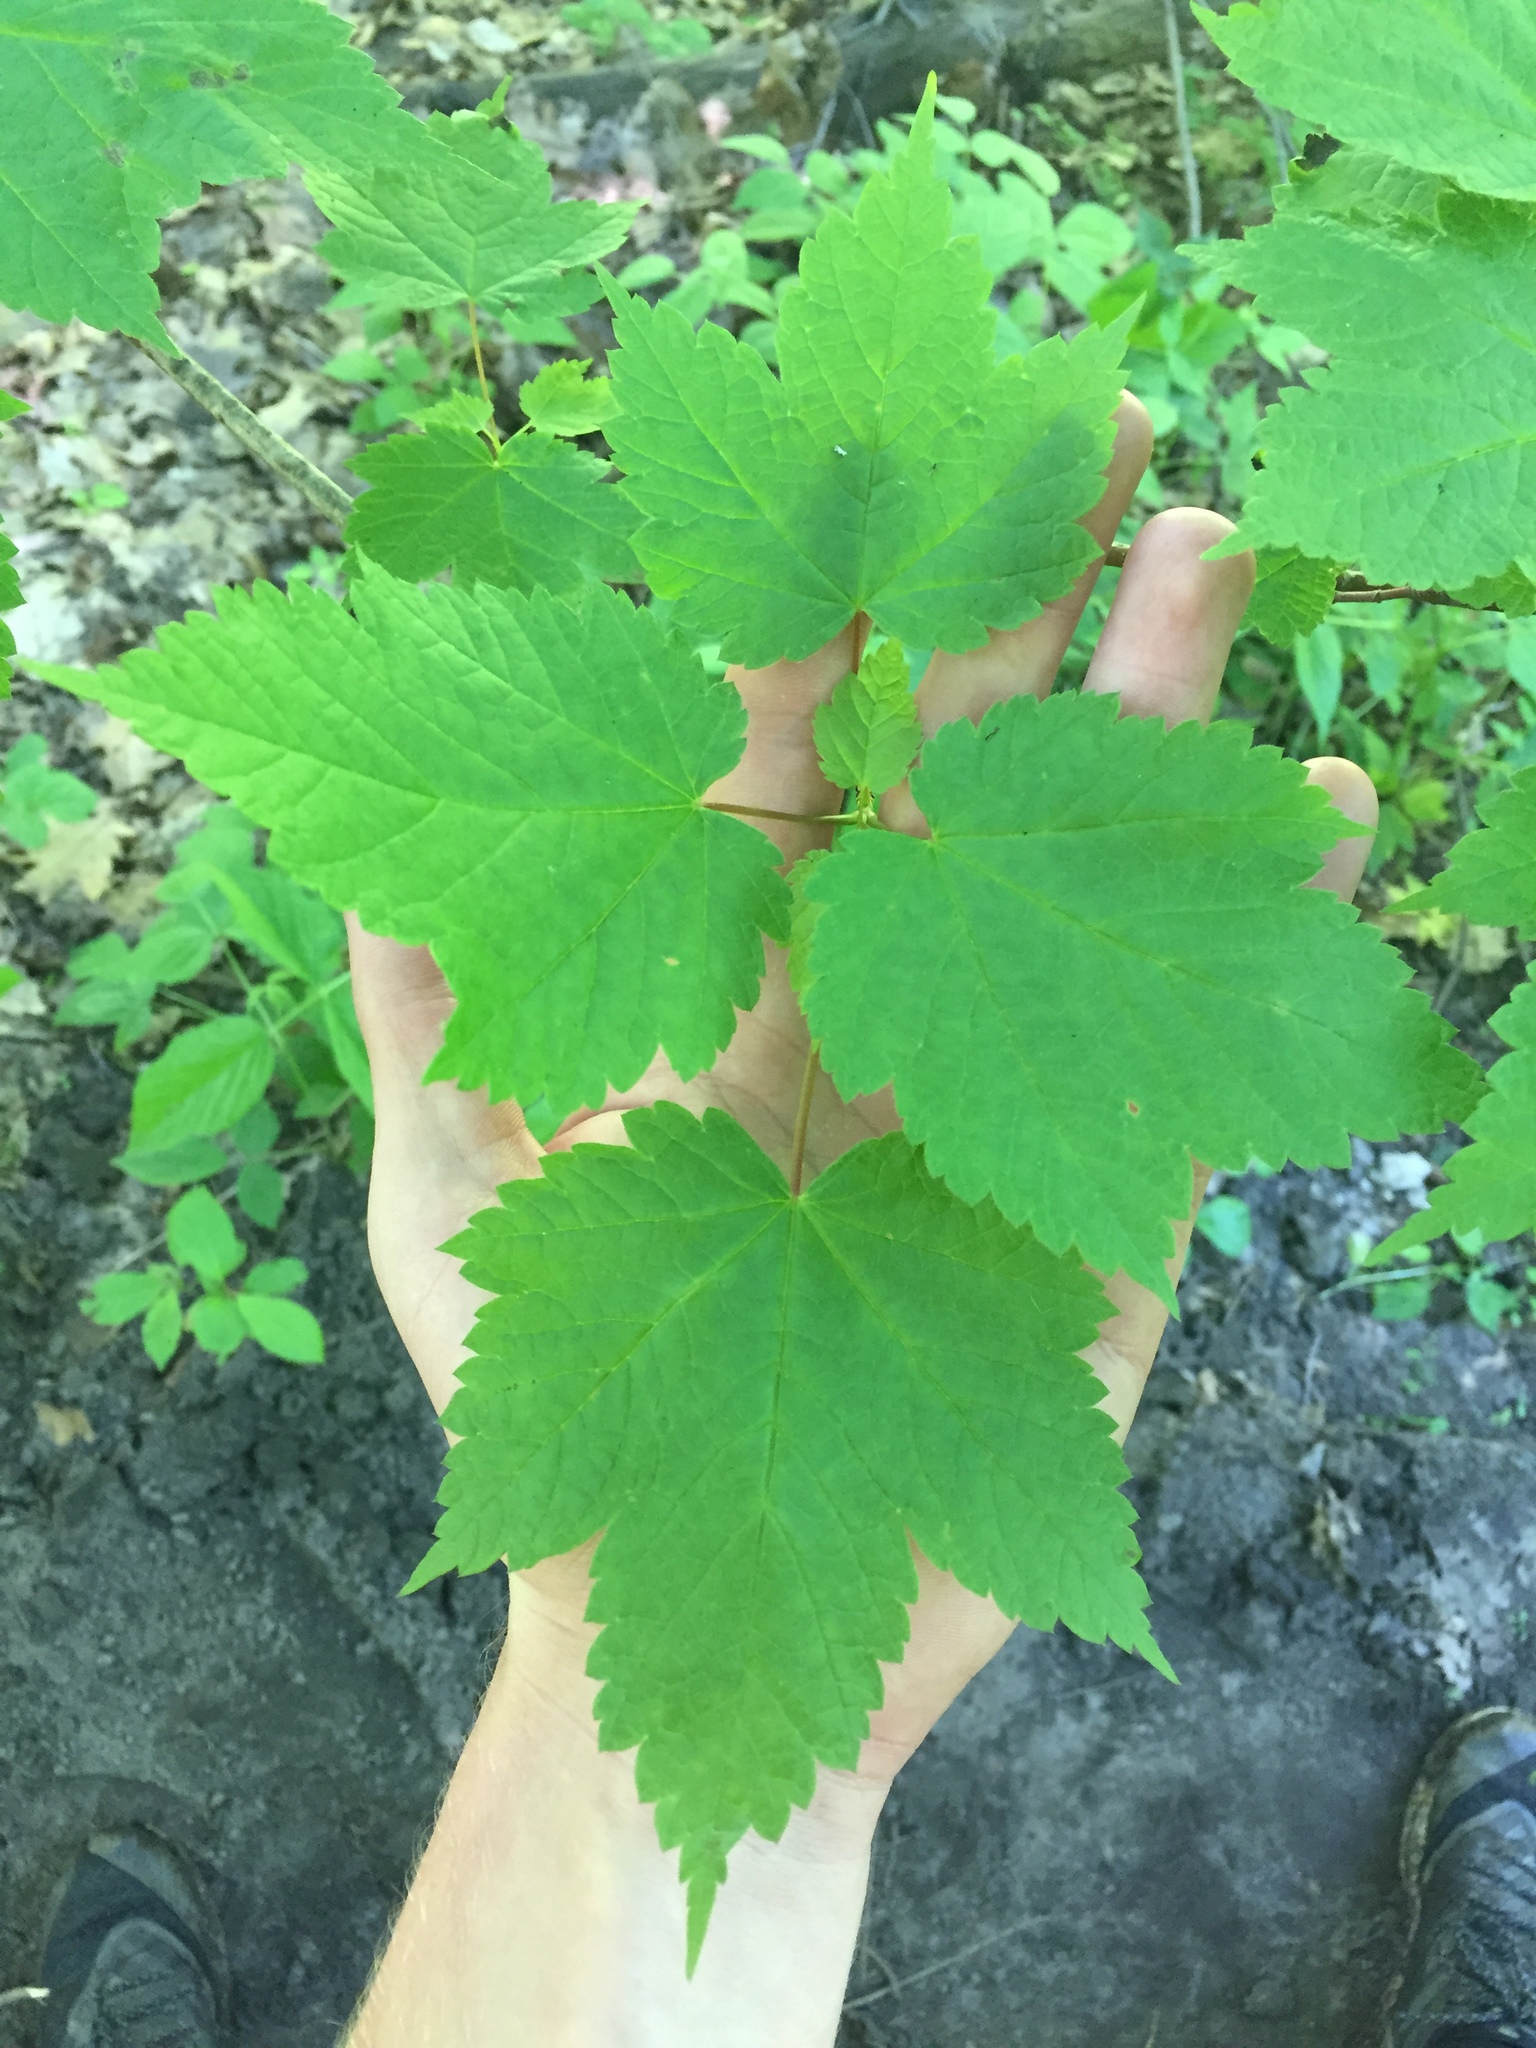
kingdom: Plantae
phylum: Tracheophyta
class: Magnoliopsida
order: Sapindales
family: Sapindaceae
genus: Acer
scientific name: Acer spicatum
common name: Mountain maple
